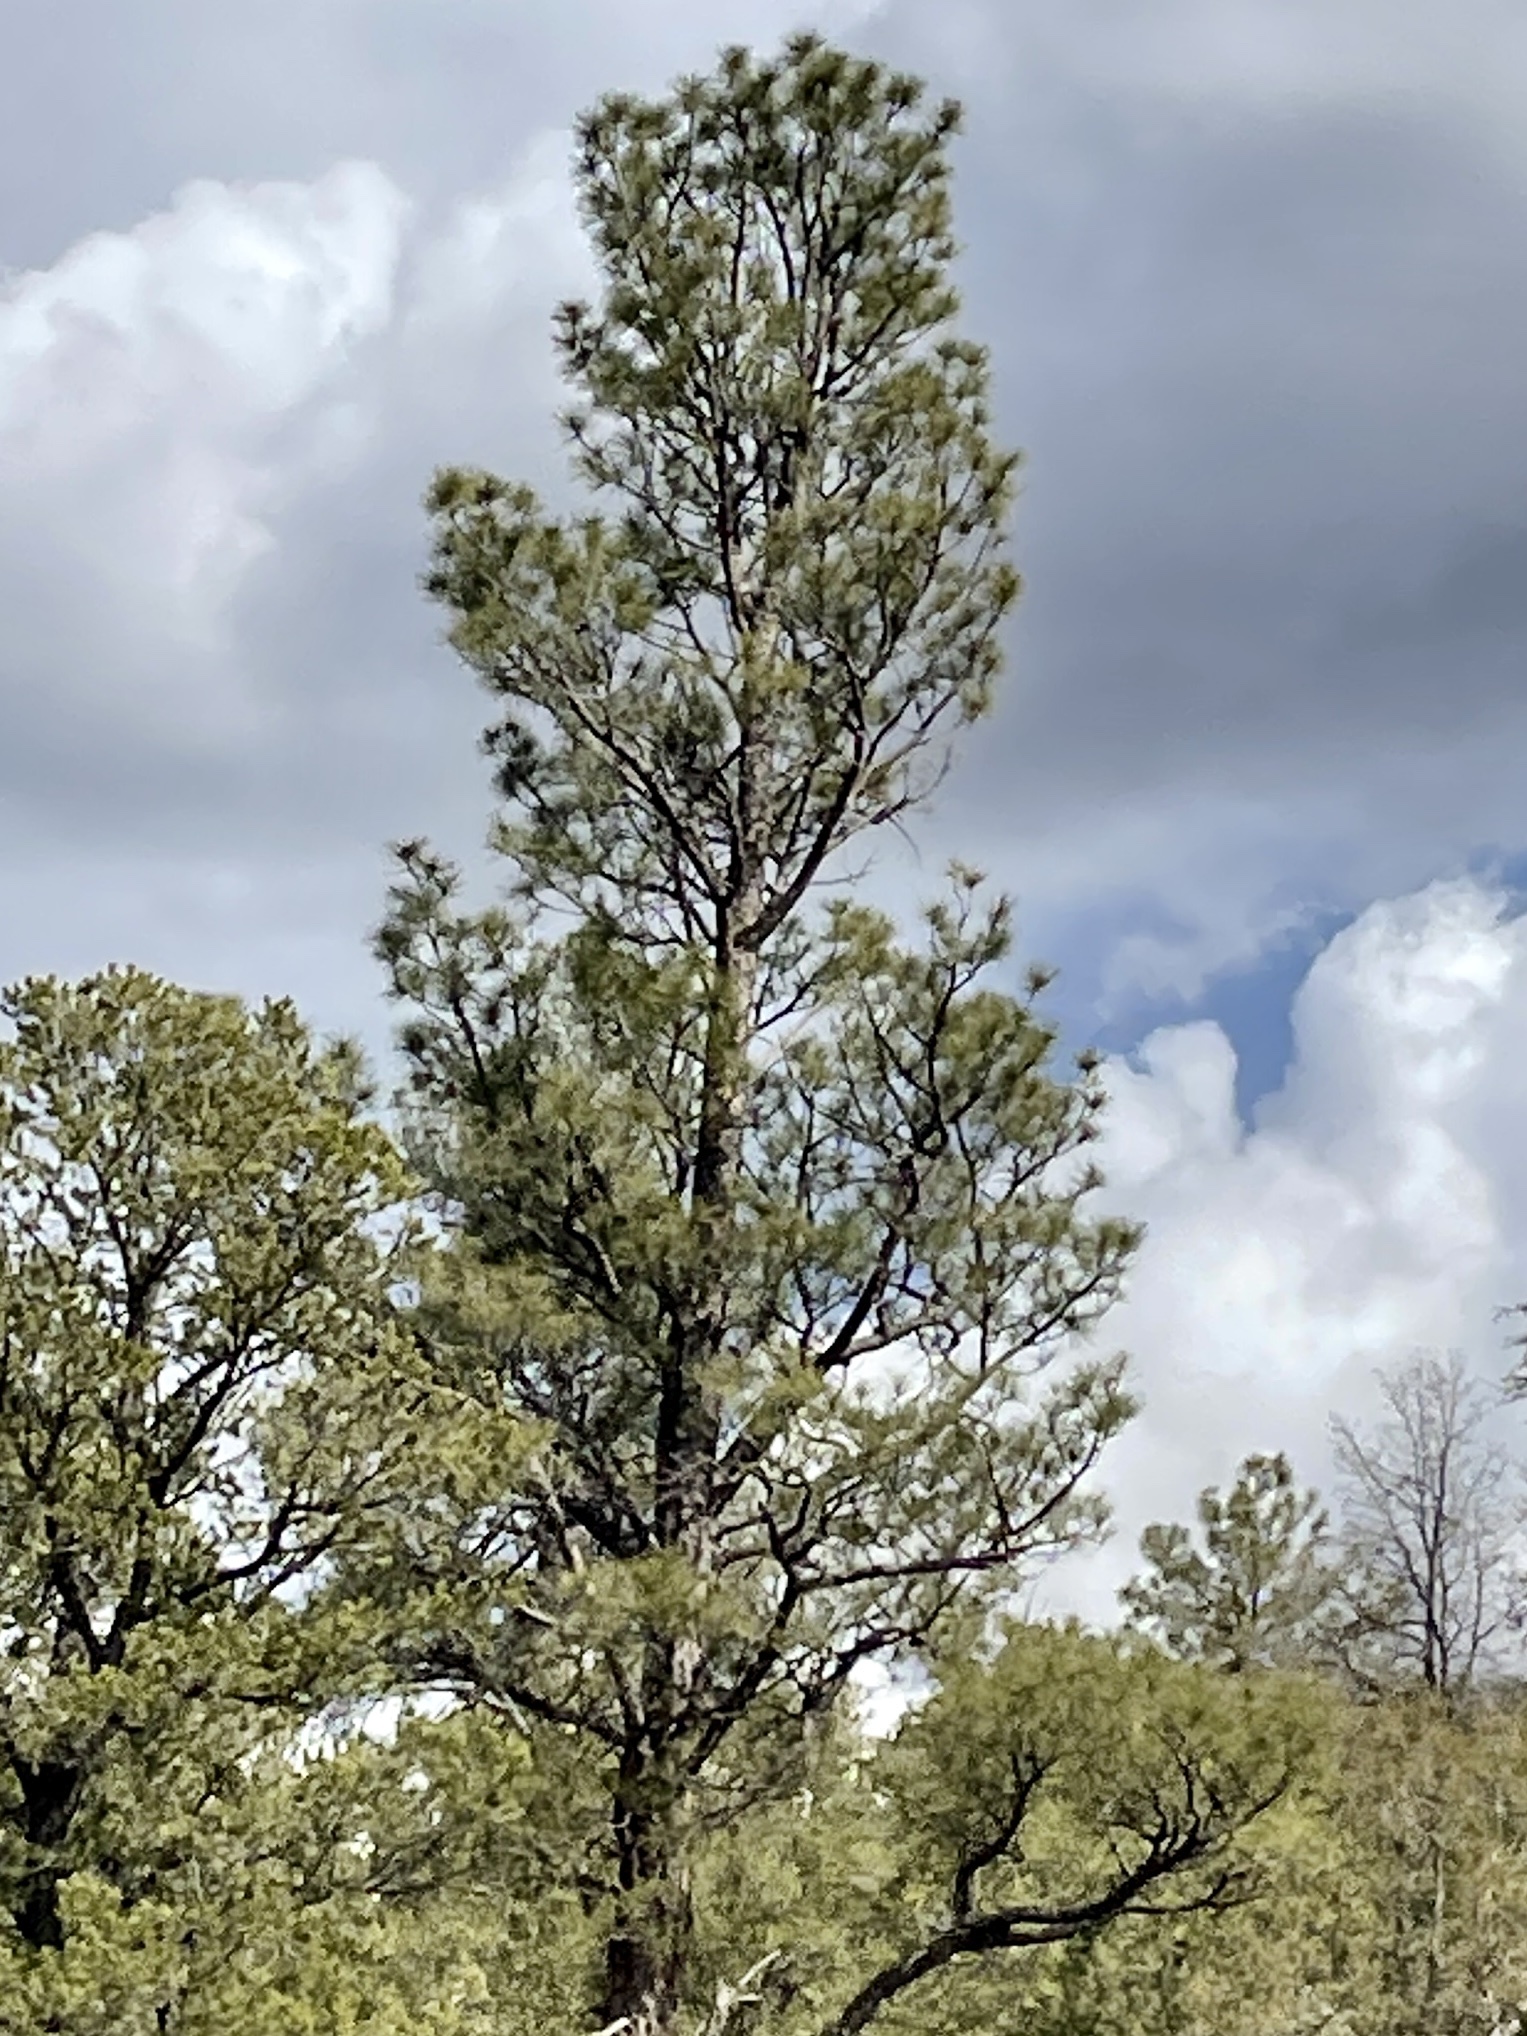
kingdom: Plantae
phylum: Tracheophyta
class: Pinopsida
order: Pinales
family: Pinaceae
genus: Pinus
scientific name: Pinus ponderosa
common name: Western yellow-pine
